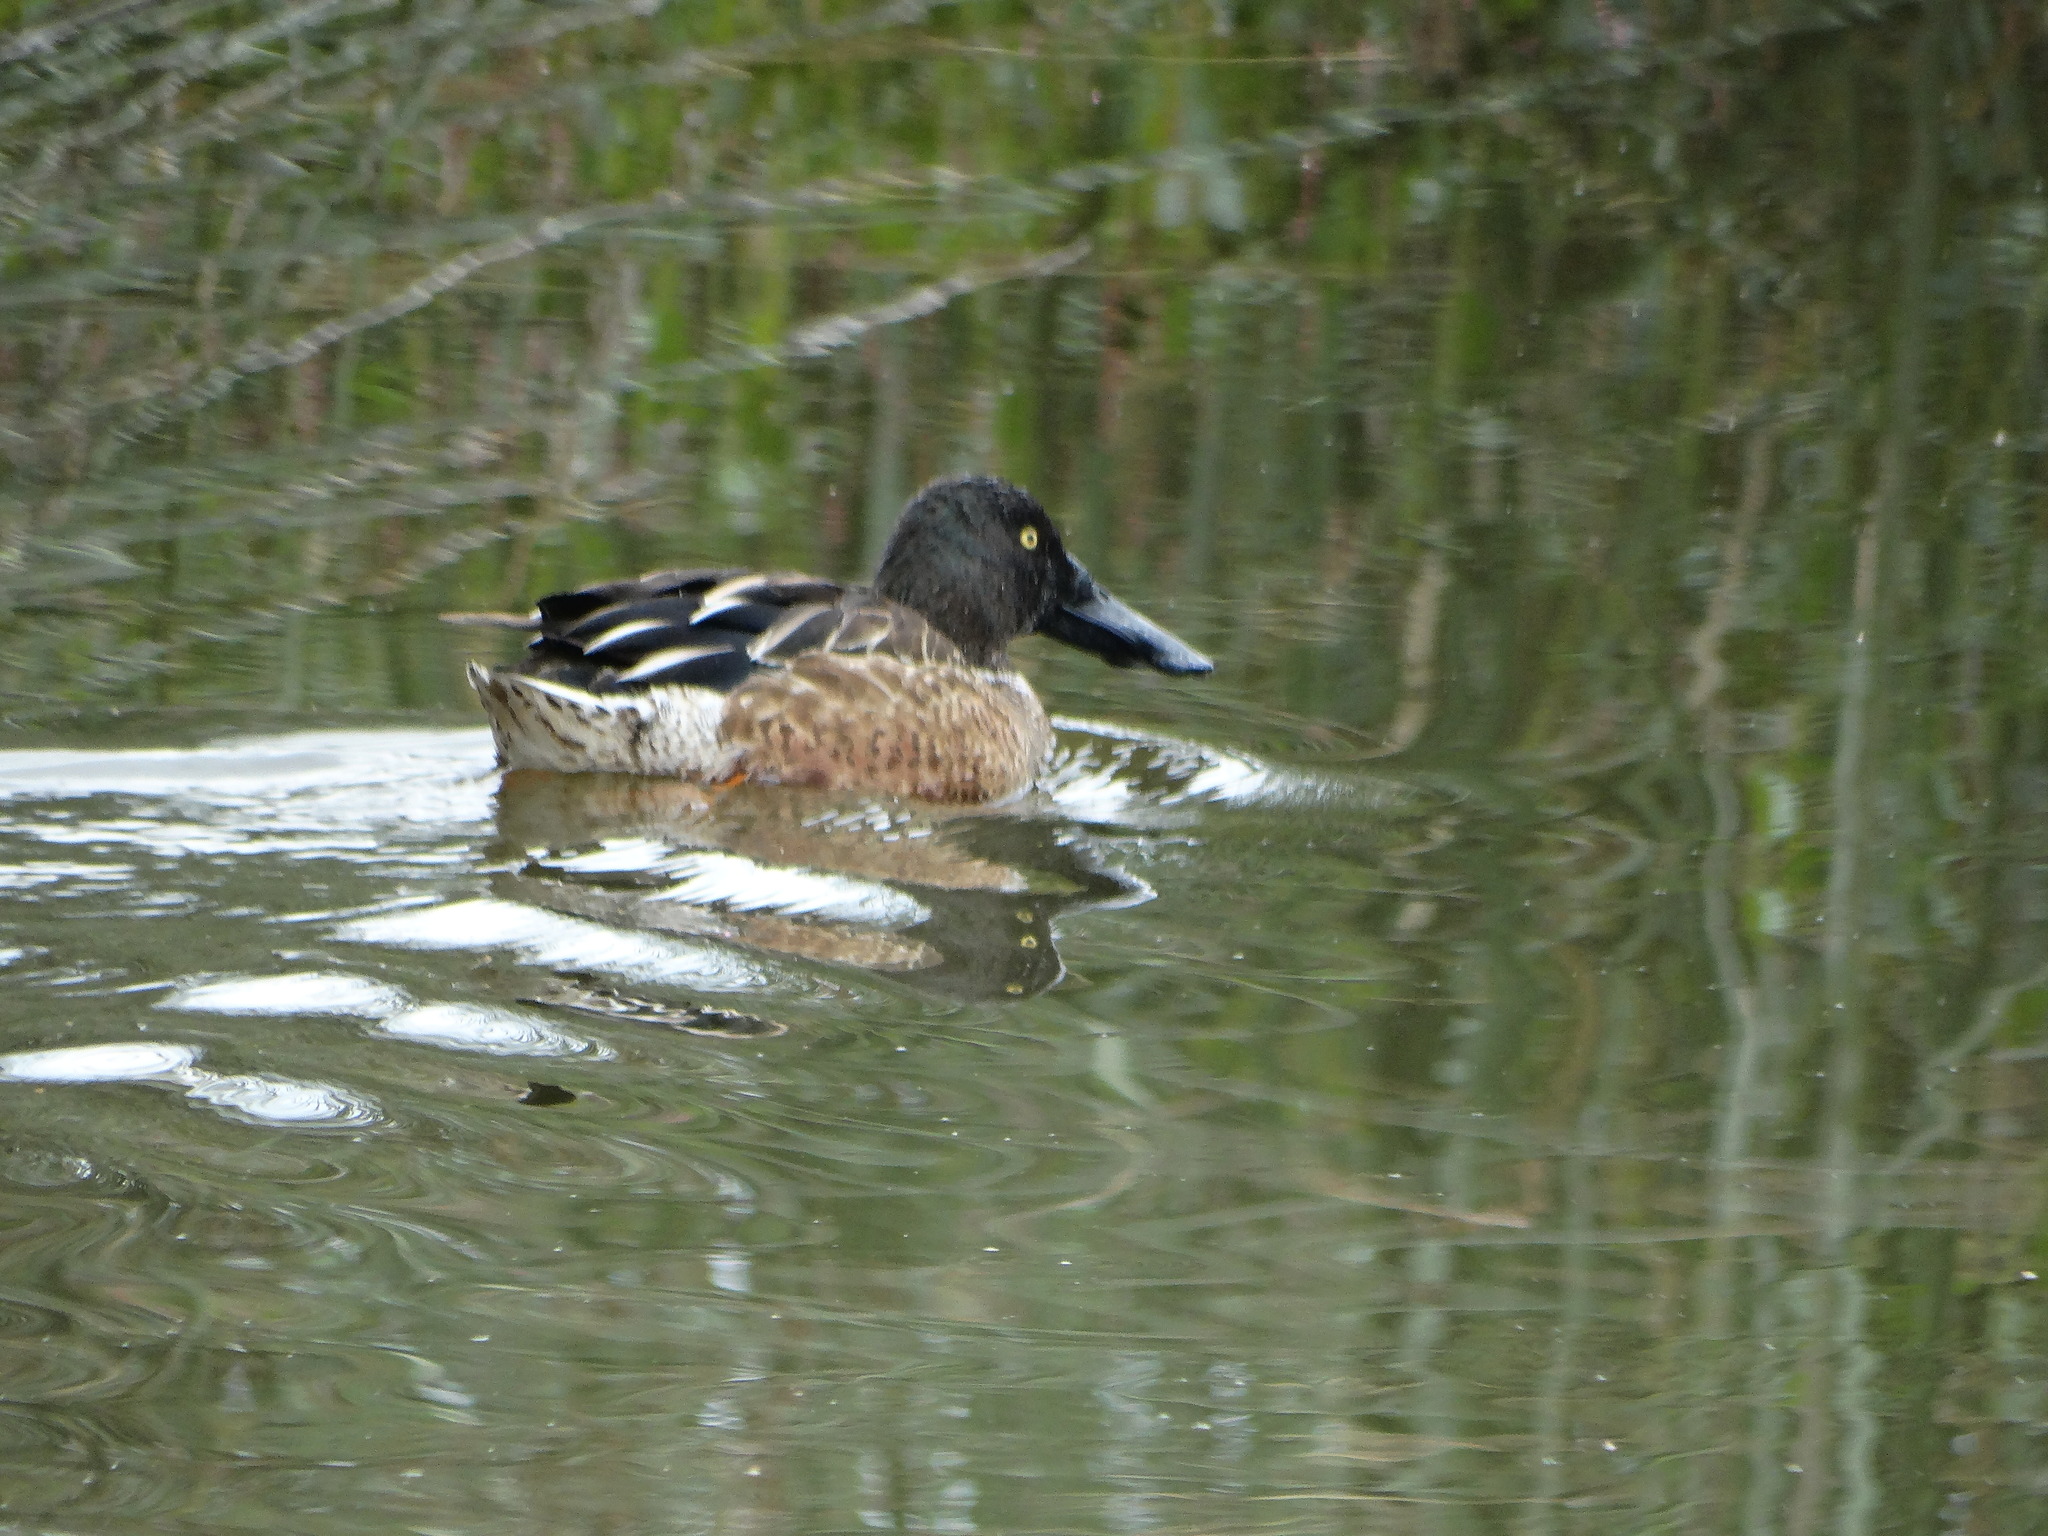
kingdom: Animalia
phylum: Chordata
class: Aves
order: Anseriformes
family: Anatidae
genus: Spatula
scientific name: Spatula clypeata
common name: Northern shoveler
